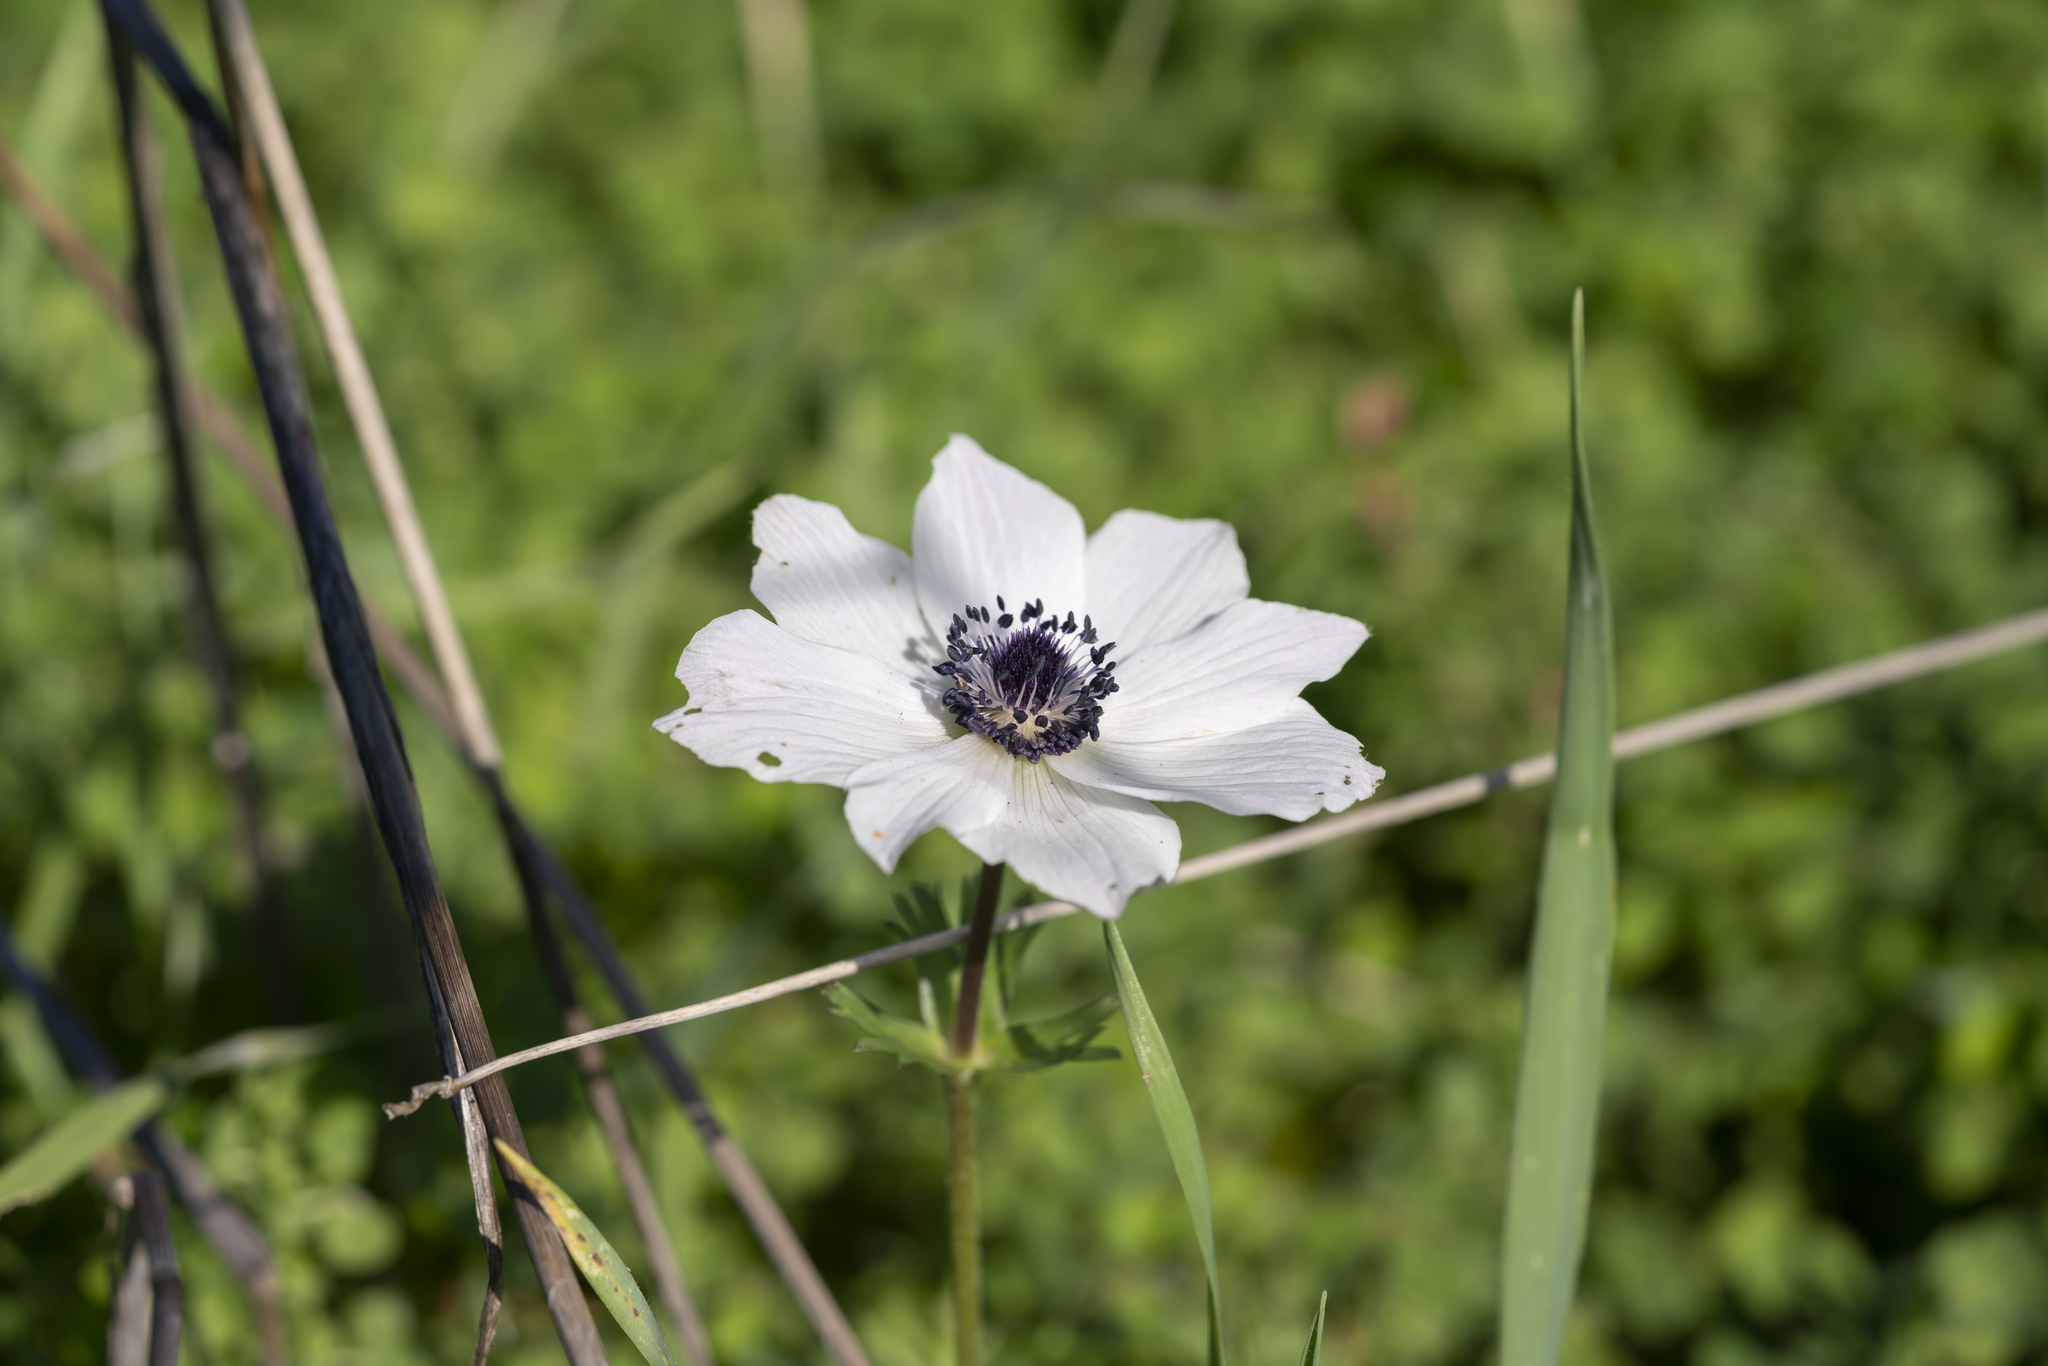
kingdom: Plantae
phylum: Tracheophyta
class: Magnoliopsida
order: Ranunculales
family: Ranunculaceae
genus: Anemone
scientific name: Anemone coronaria
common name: Poppy anemone
